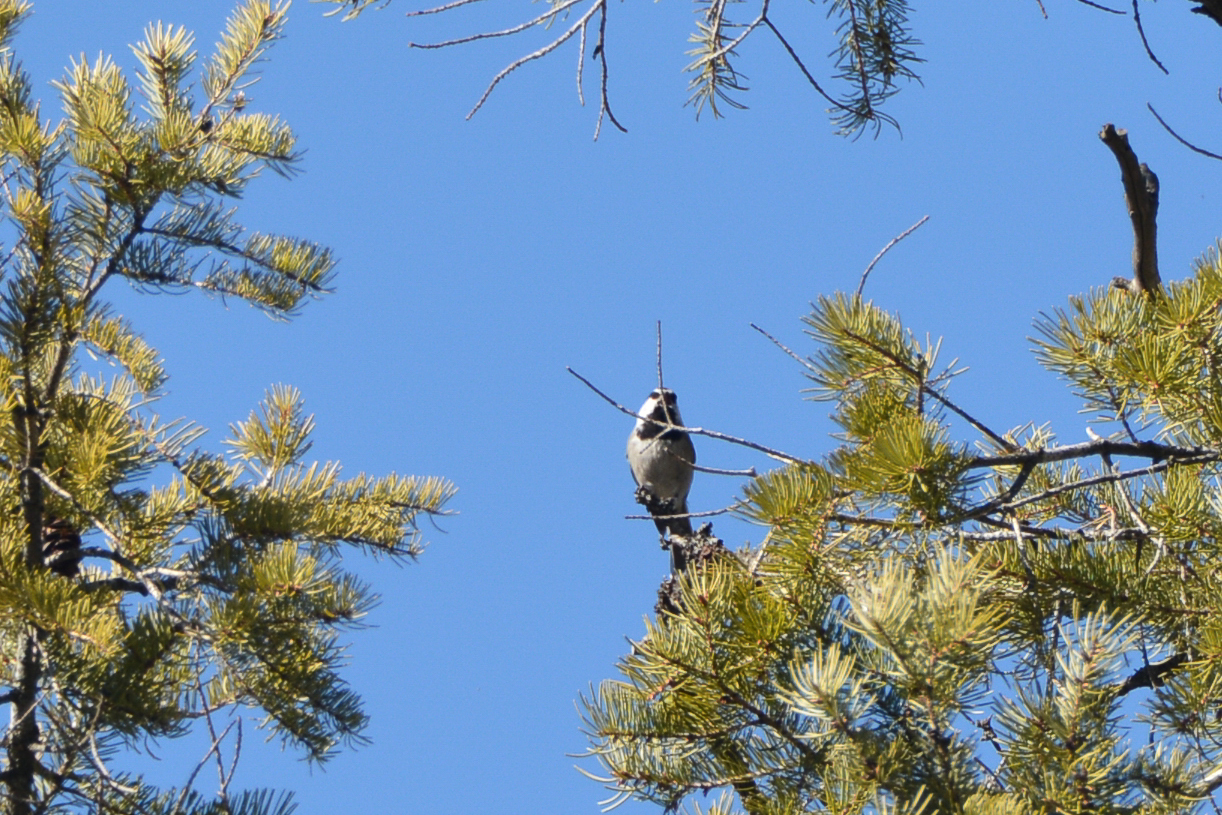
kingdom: Animalia
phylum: Chordata
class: Aves
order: Passeriformes
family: Paridae
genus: Poecile
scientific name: Poecile gambeli
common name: Mountain chickadee
